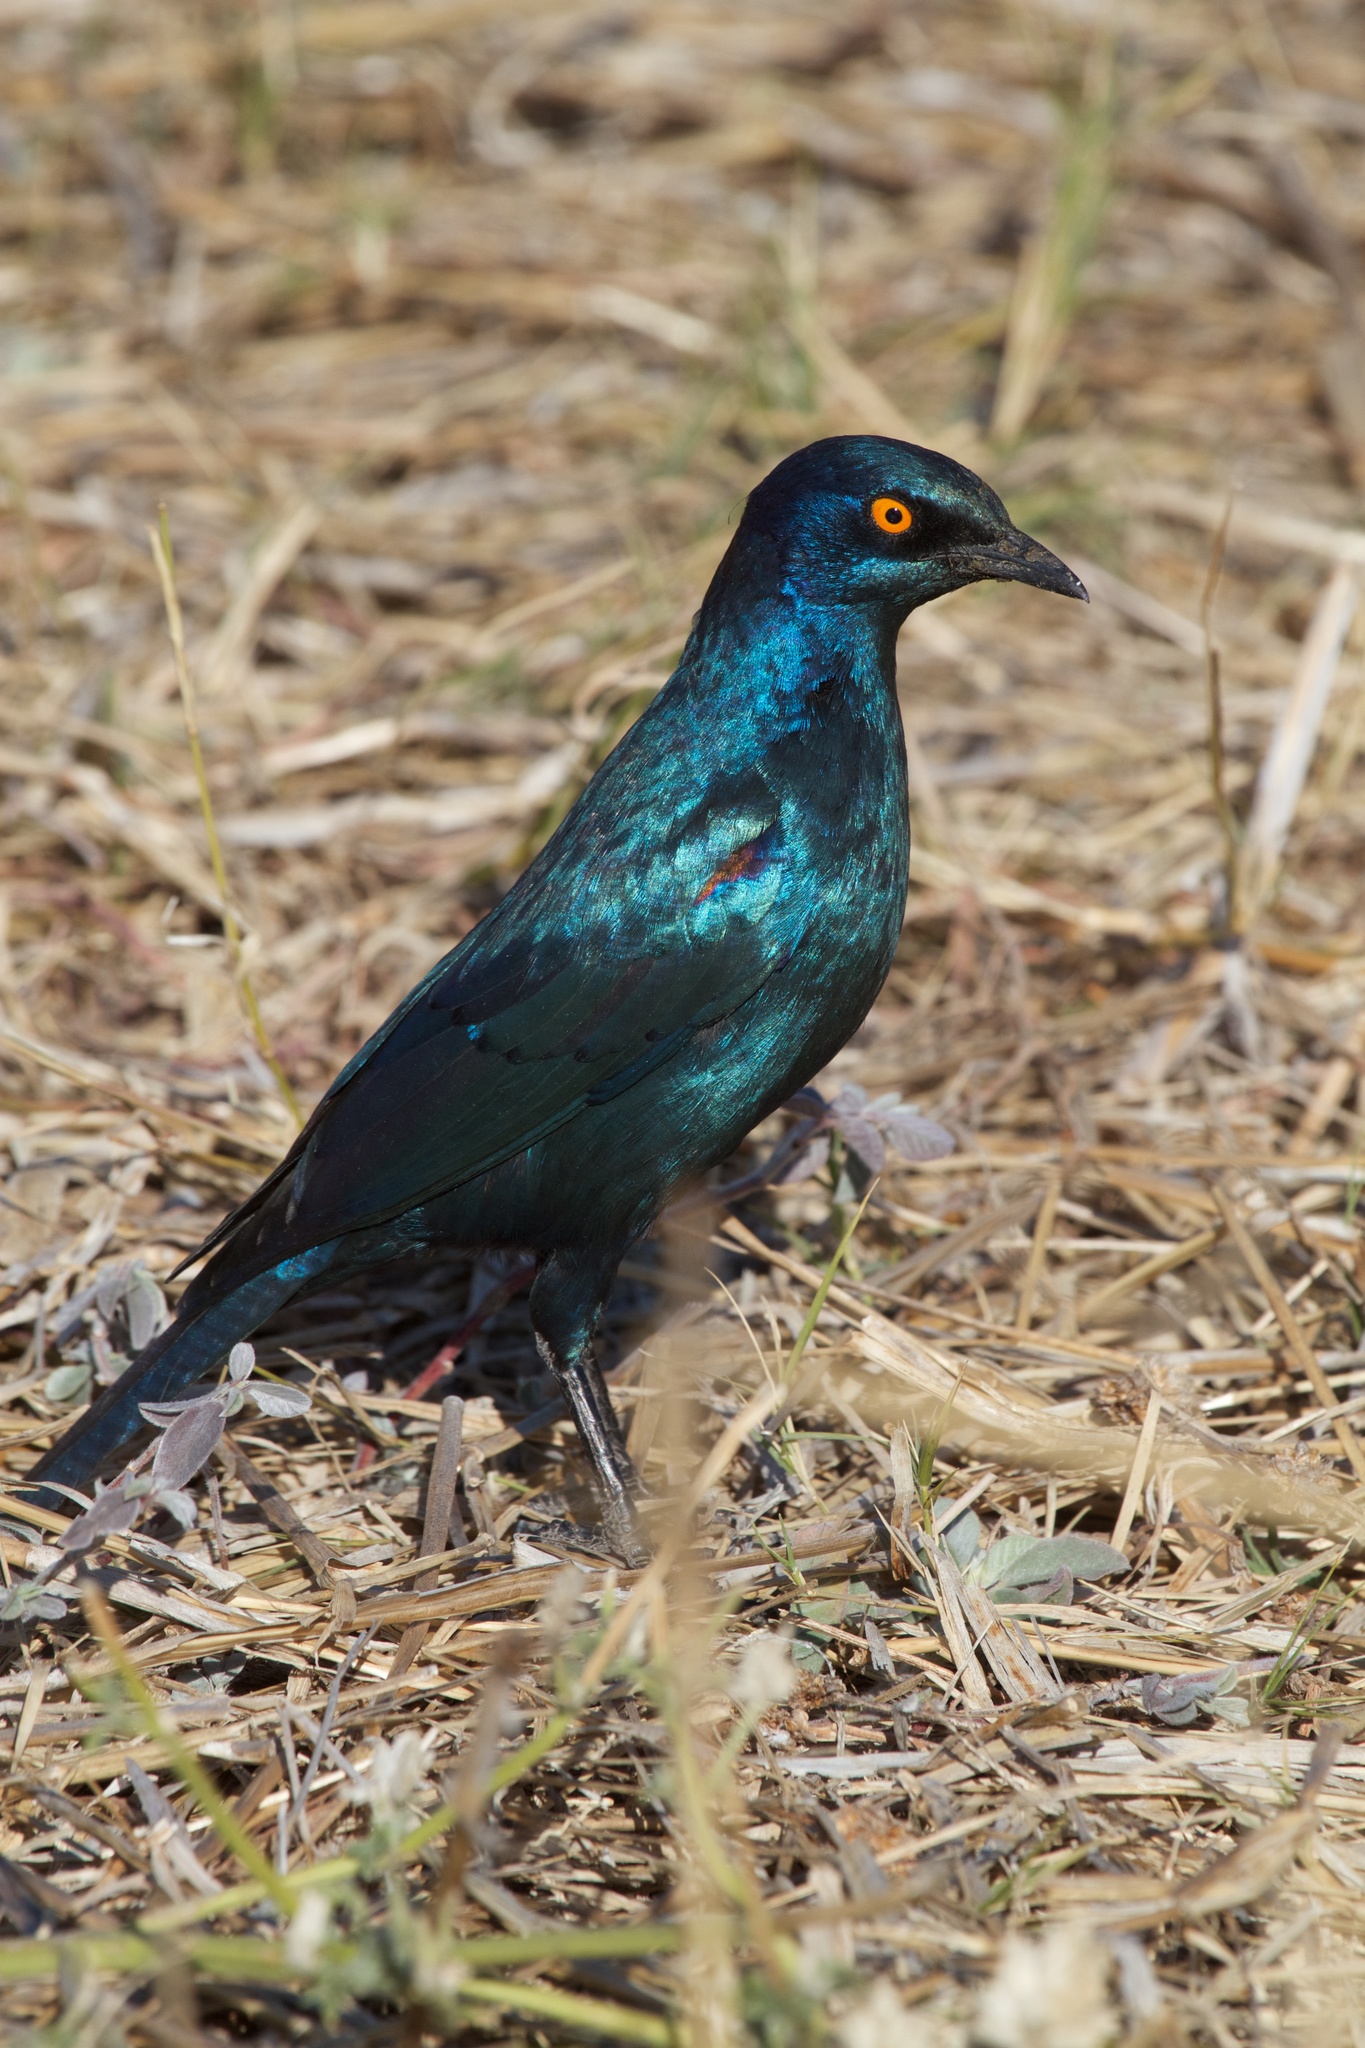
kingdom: Animalia
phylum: Chordata
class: Aves
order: Passeriformes
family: Sturnidae
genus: Lamprotornis
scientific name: Lamprotornis nitens
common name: Cape starling
